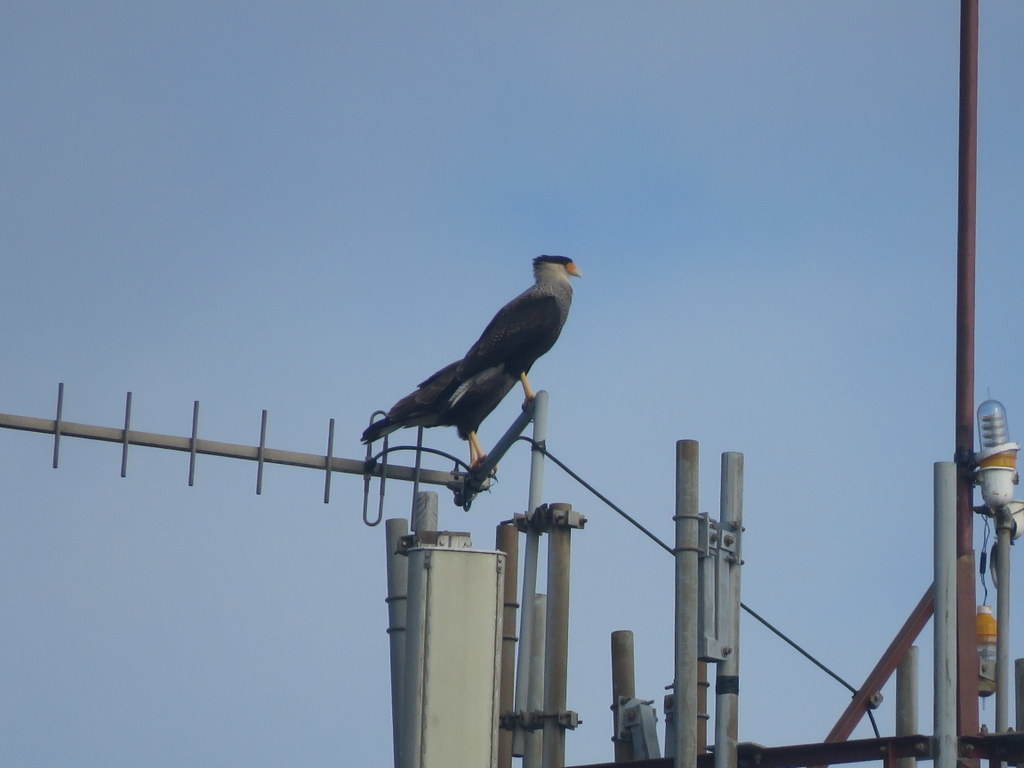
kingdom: Animalia
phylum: Chordata
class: Aves
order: Falconiformes
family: Falconidae
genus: Caracara
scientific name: Caracara plancus
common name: Southern caracara
